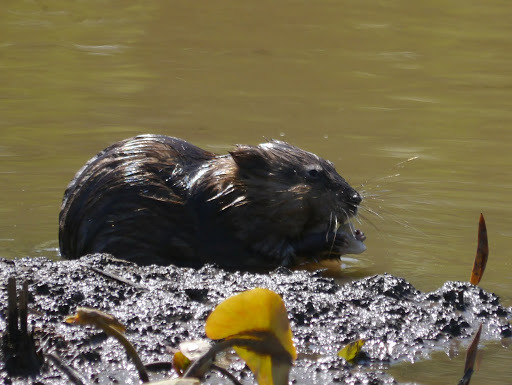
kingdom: Animalia
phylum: Chordata
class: Mammalia
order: Rodentia
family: Cricetidae
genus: Ondatra
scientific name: Ondatra zibethicus
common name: Muskrat
